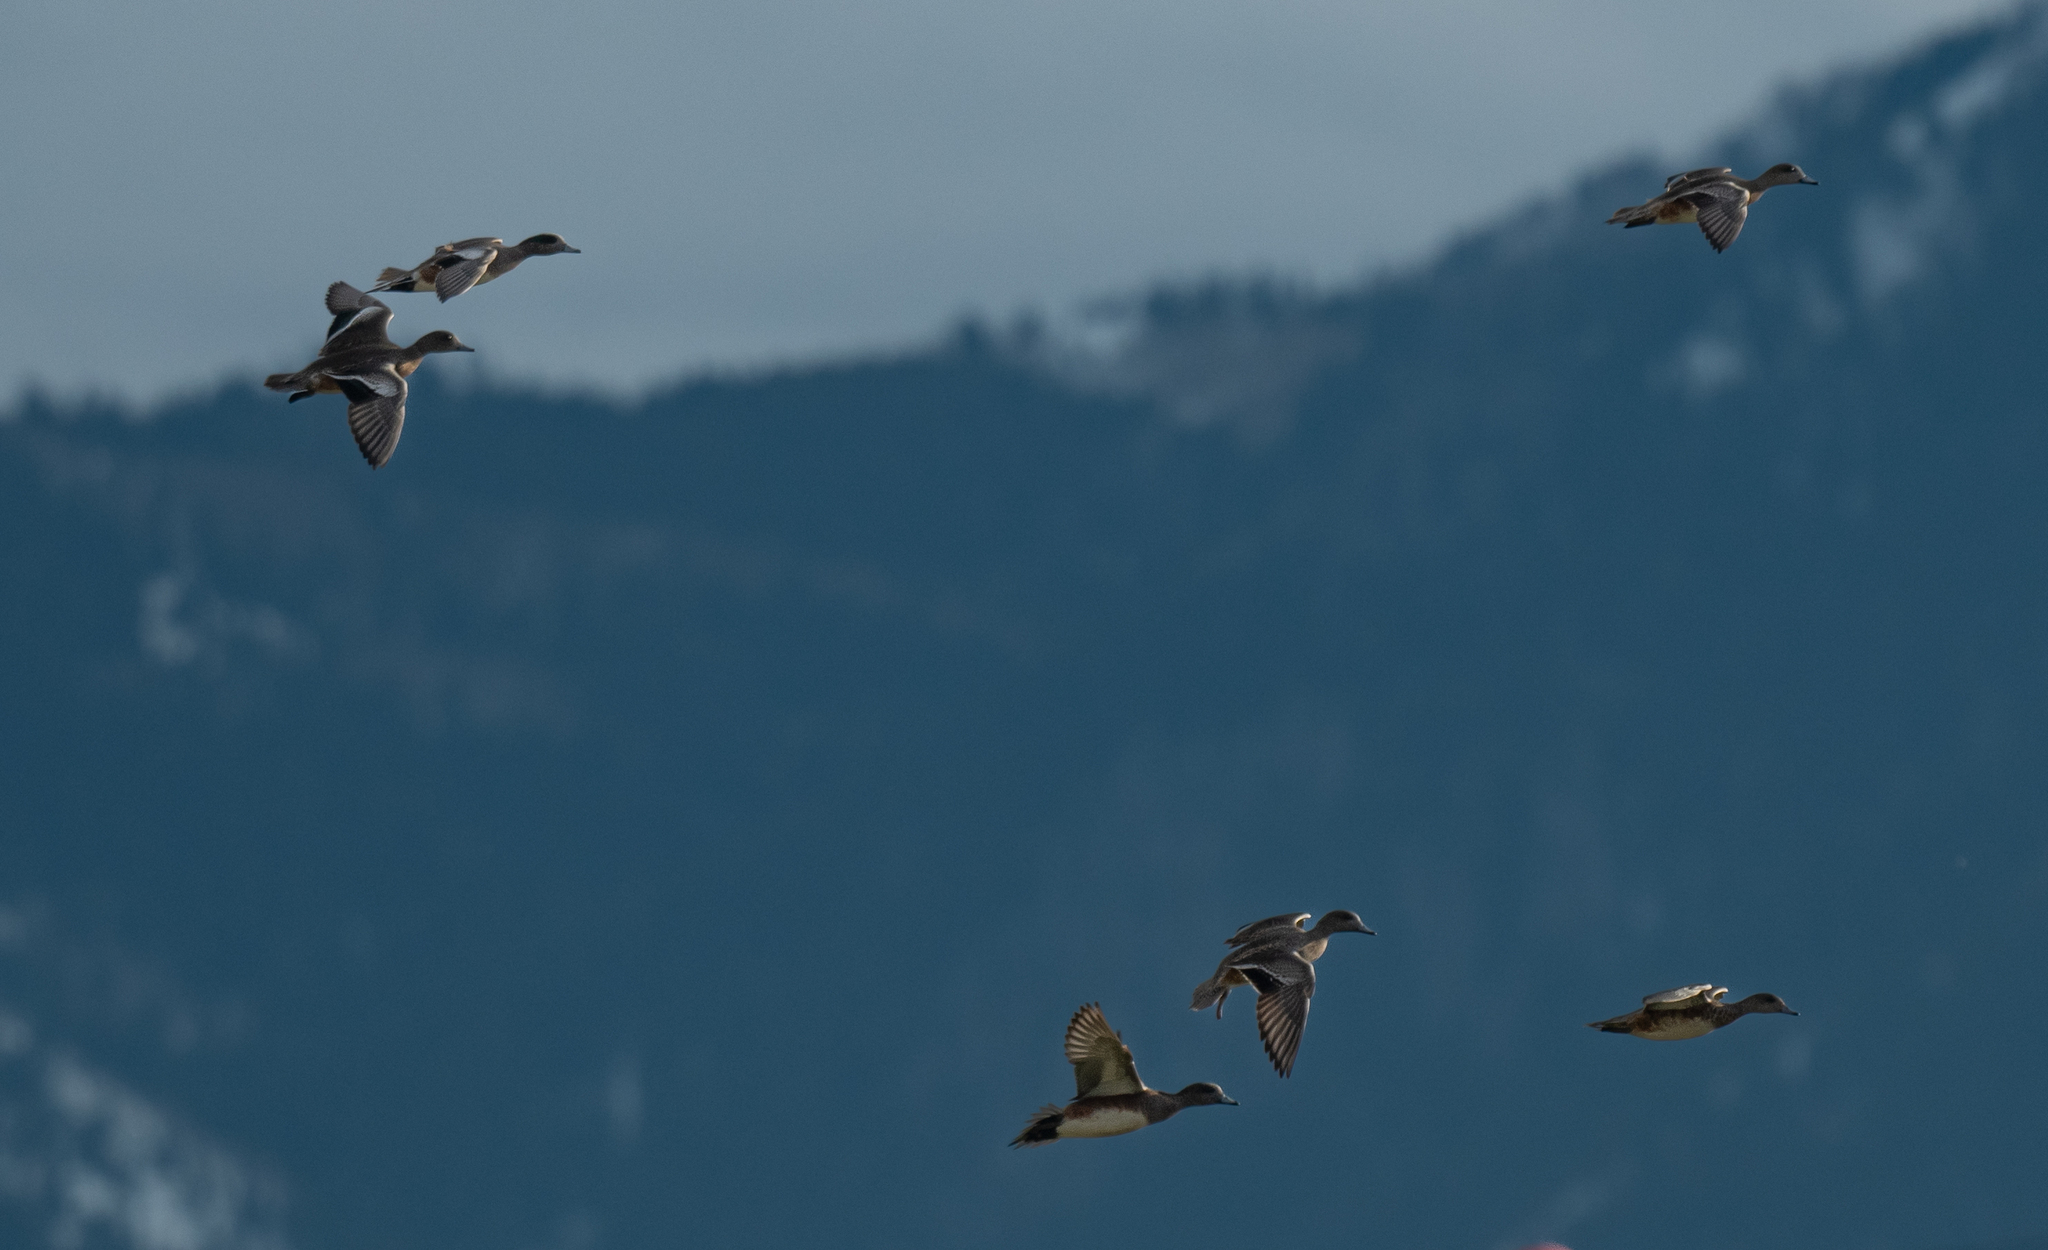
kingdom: Animalia
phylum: Chordata
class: Aves
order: Anseriformes
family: Anatidae
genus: Mareca
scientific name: Mareca americana
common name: American wigeon
